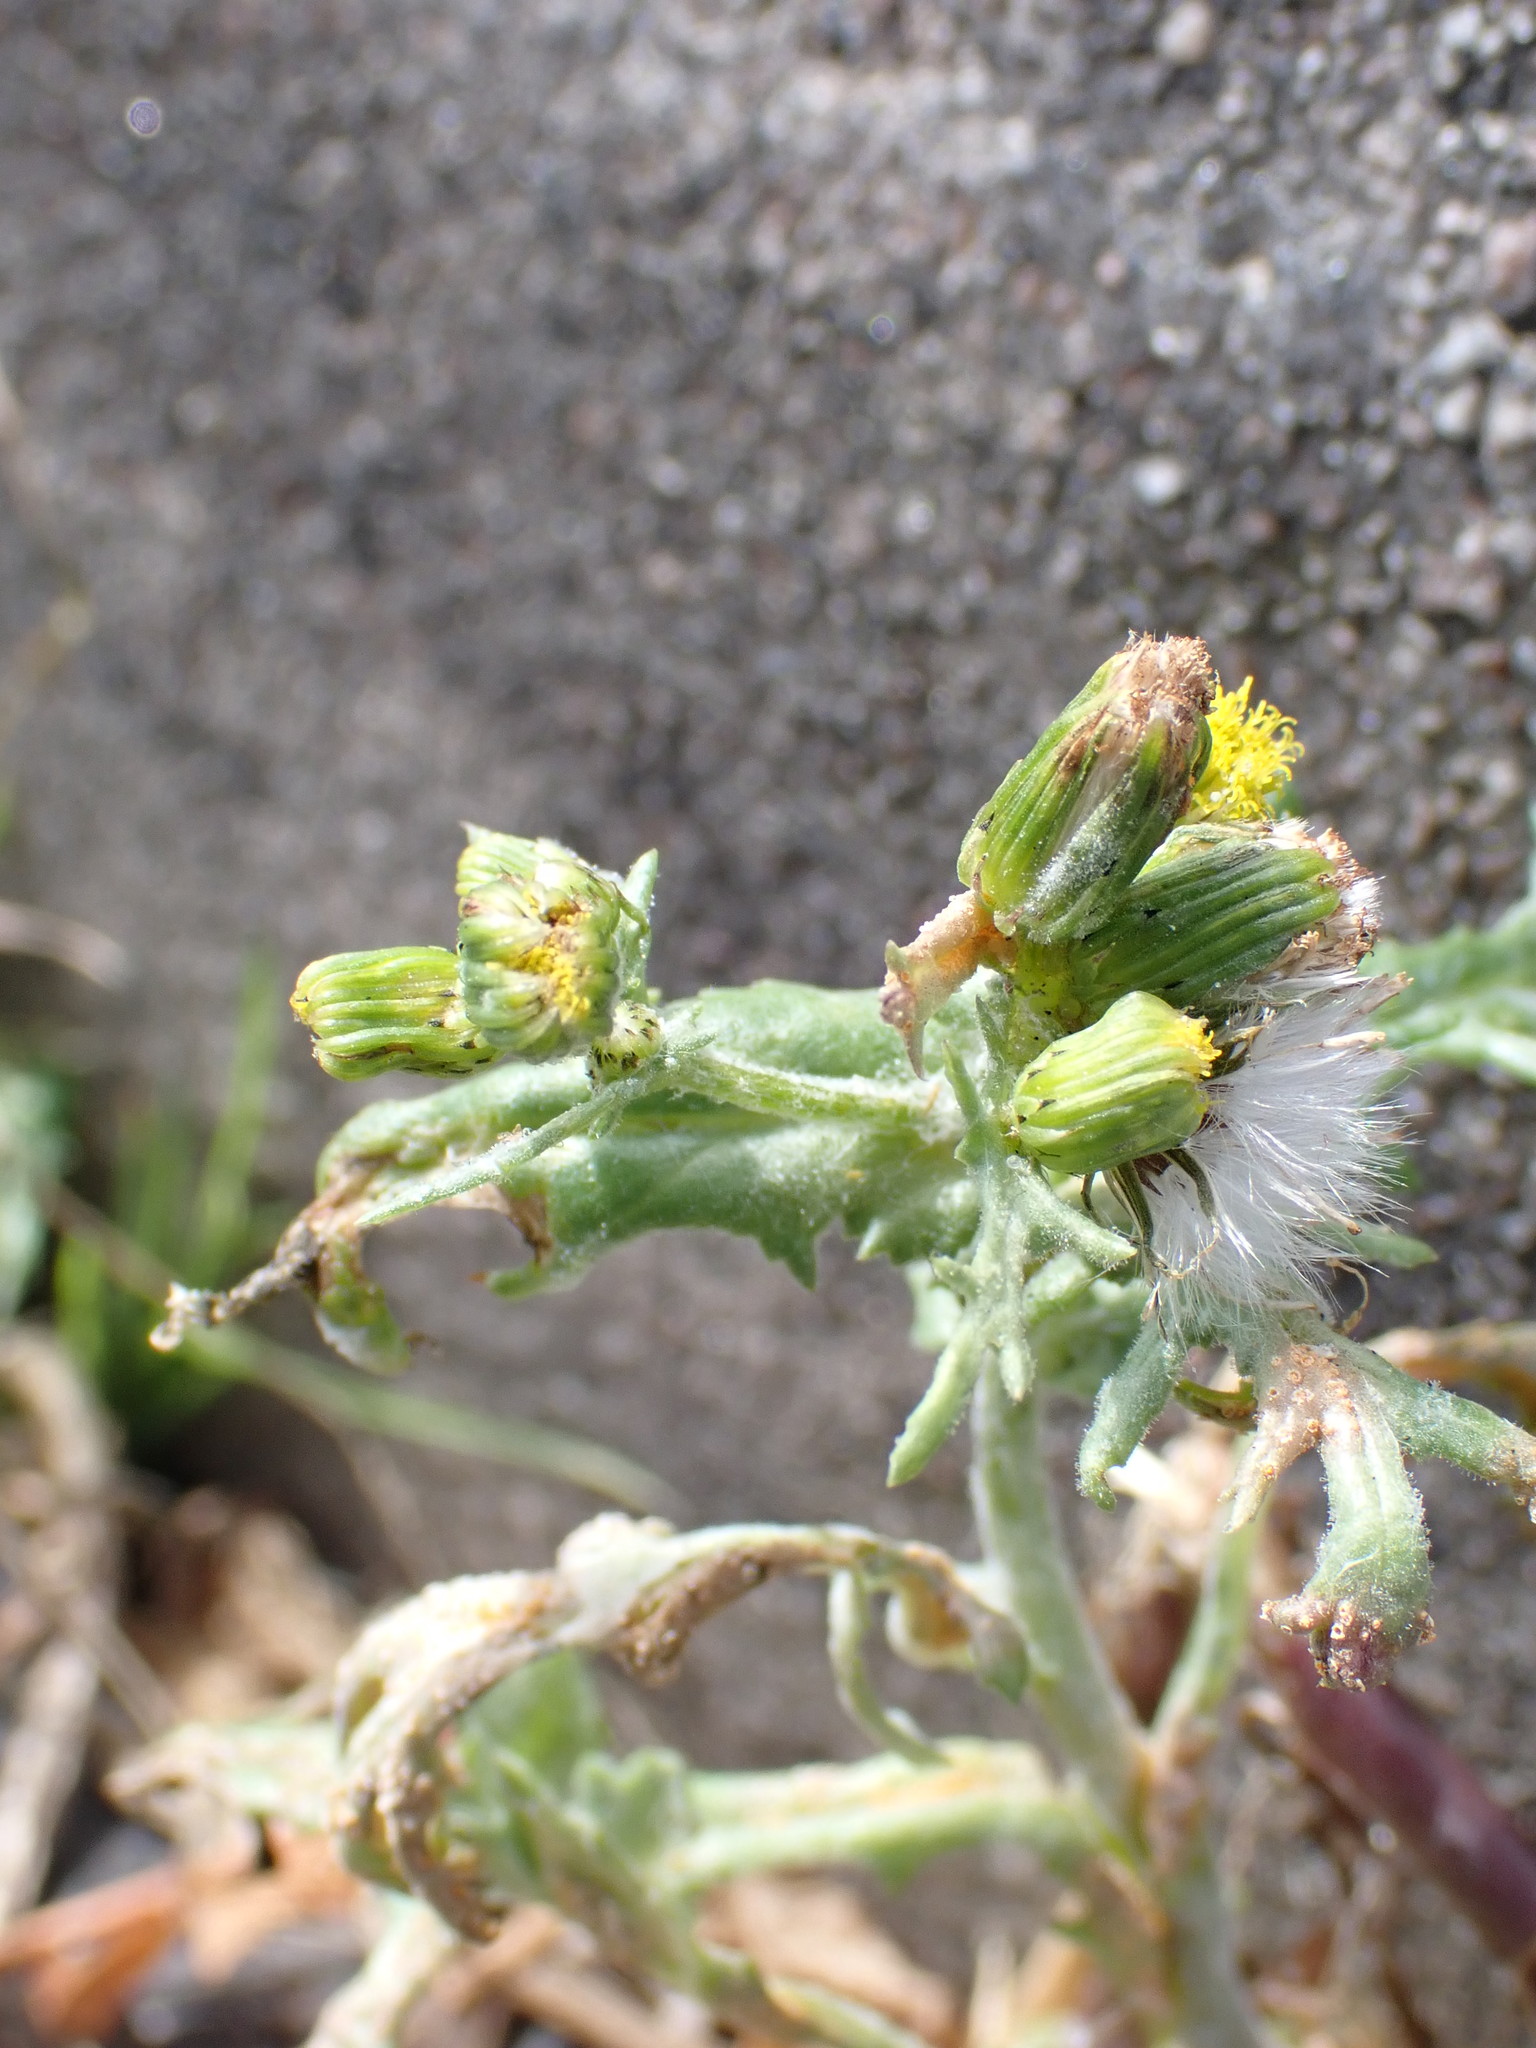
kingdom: Plantae
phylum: Tracheophyta
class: Magnoliopsida
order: Asterales
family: Asteraceae
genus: Senecio
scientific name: Senecio vulgaris
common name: Old-man-in-the-spring
